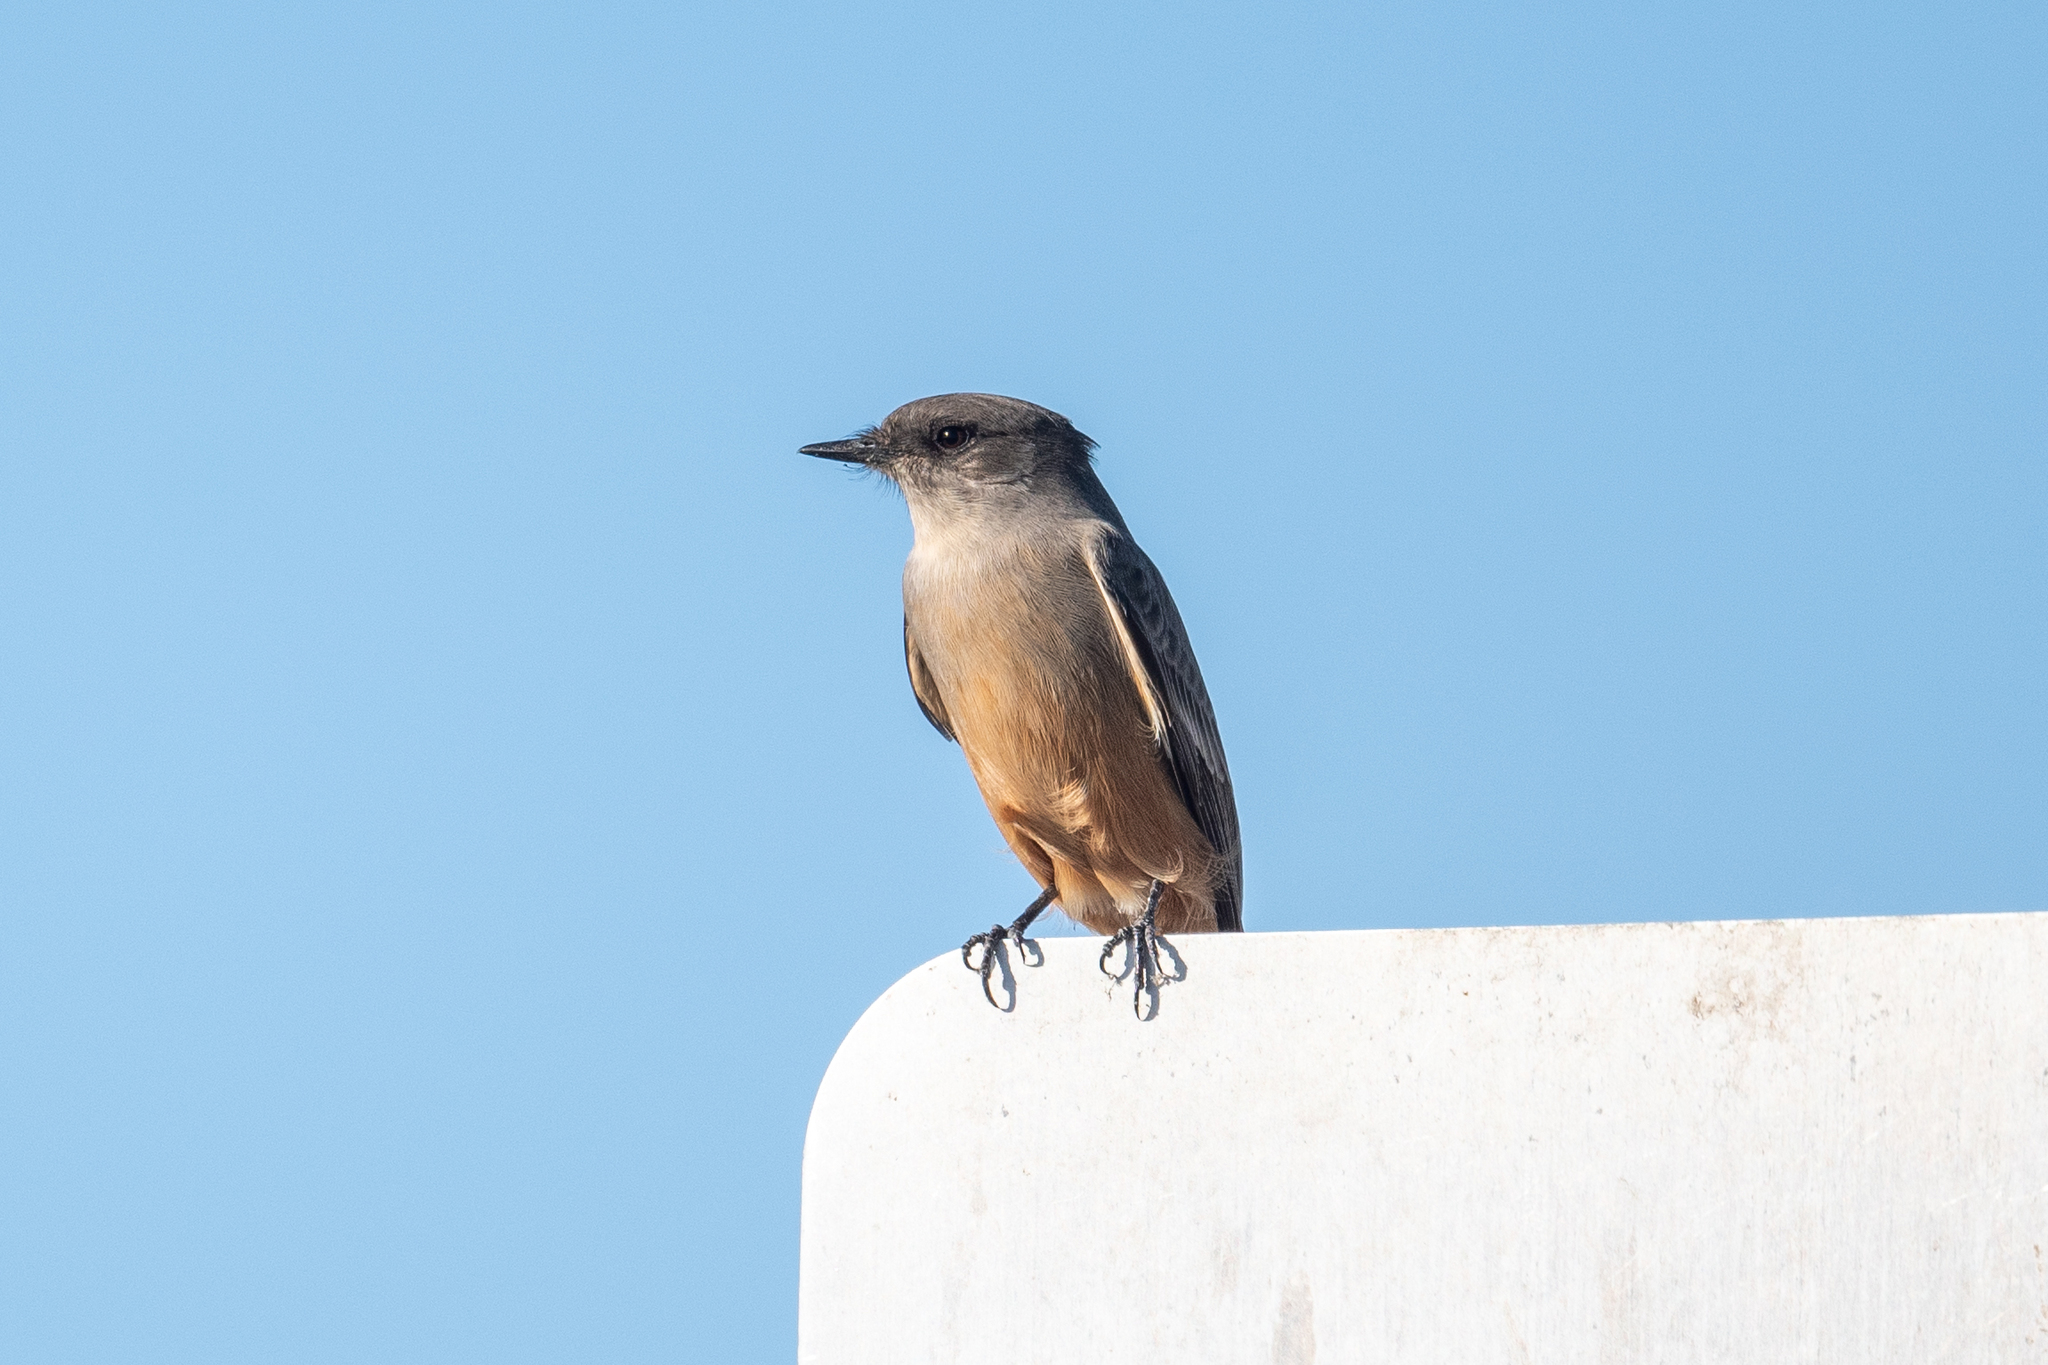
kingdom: Animalia
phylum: Chordata
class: Aves
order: Passeriformes
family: Tyrannidae
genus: Sayornis
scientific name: Sayornis saya
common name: Say's phoebe
